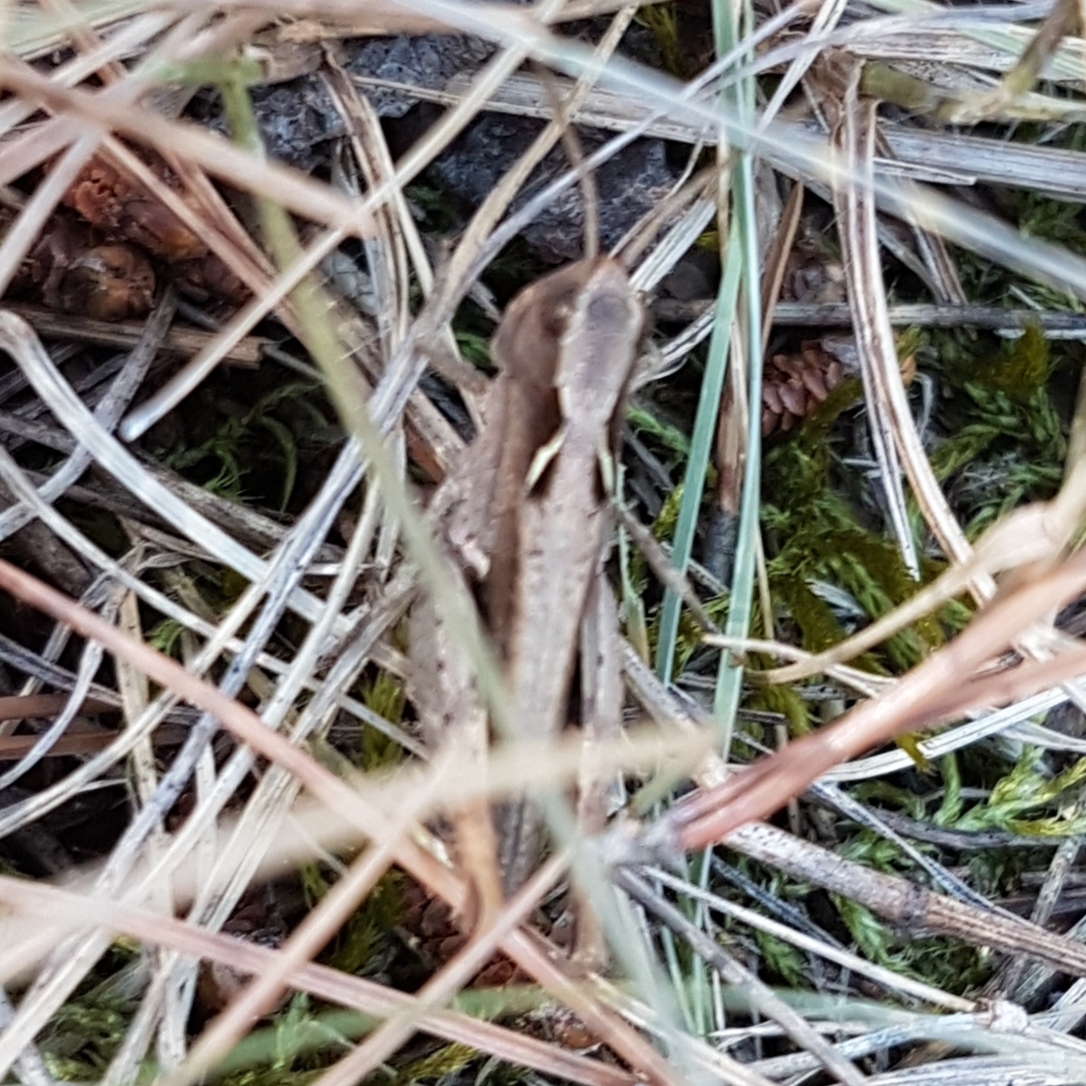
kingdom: Animalia
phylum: Arthropoda
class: Insecta
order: Orthoptera
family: Acrididae
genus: Chorthippus
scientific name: Chorthippus vagans
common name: Heath grasshopper
